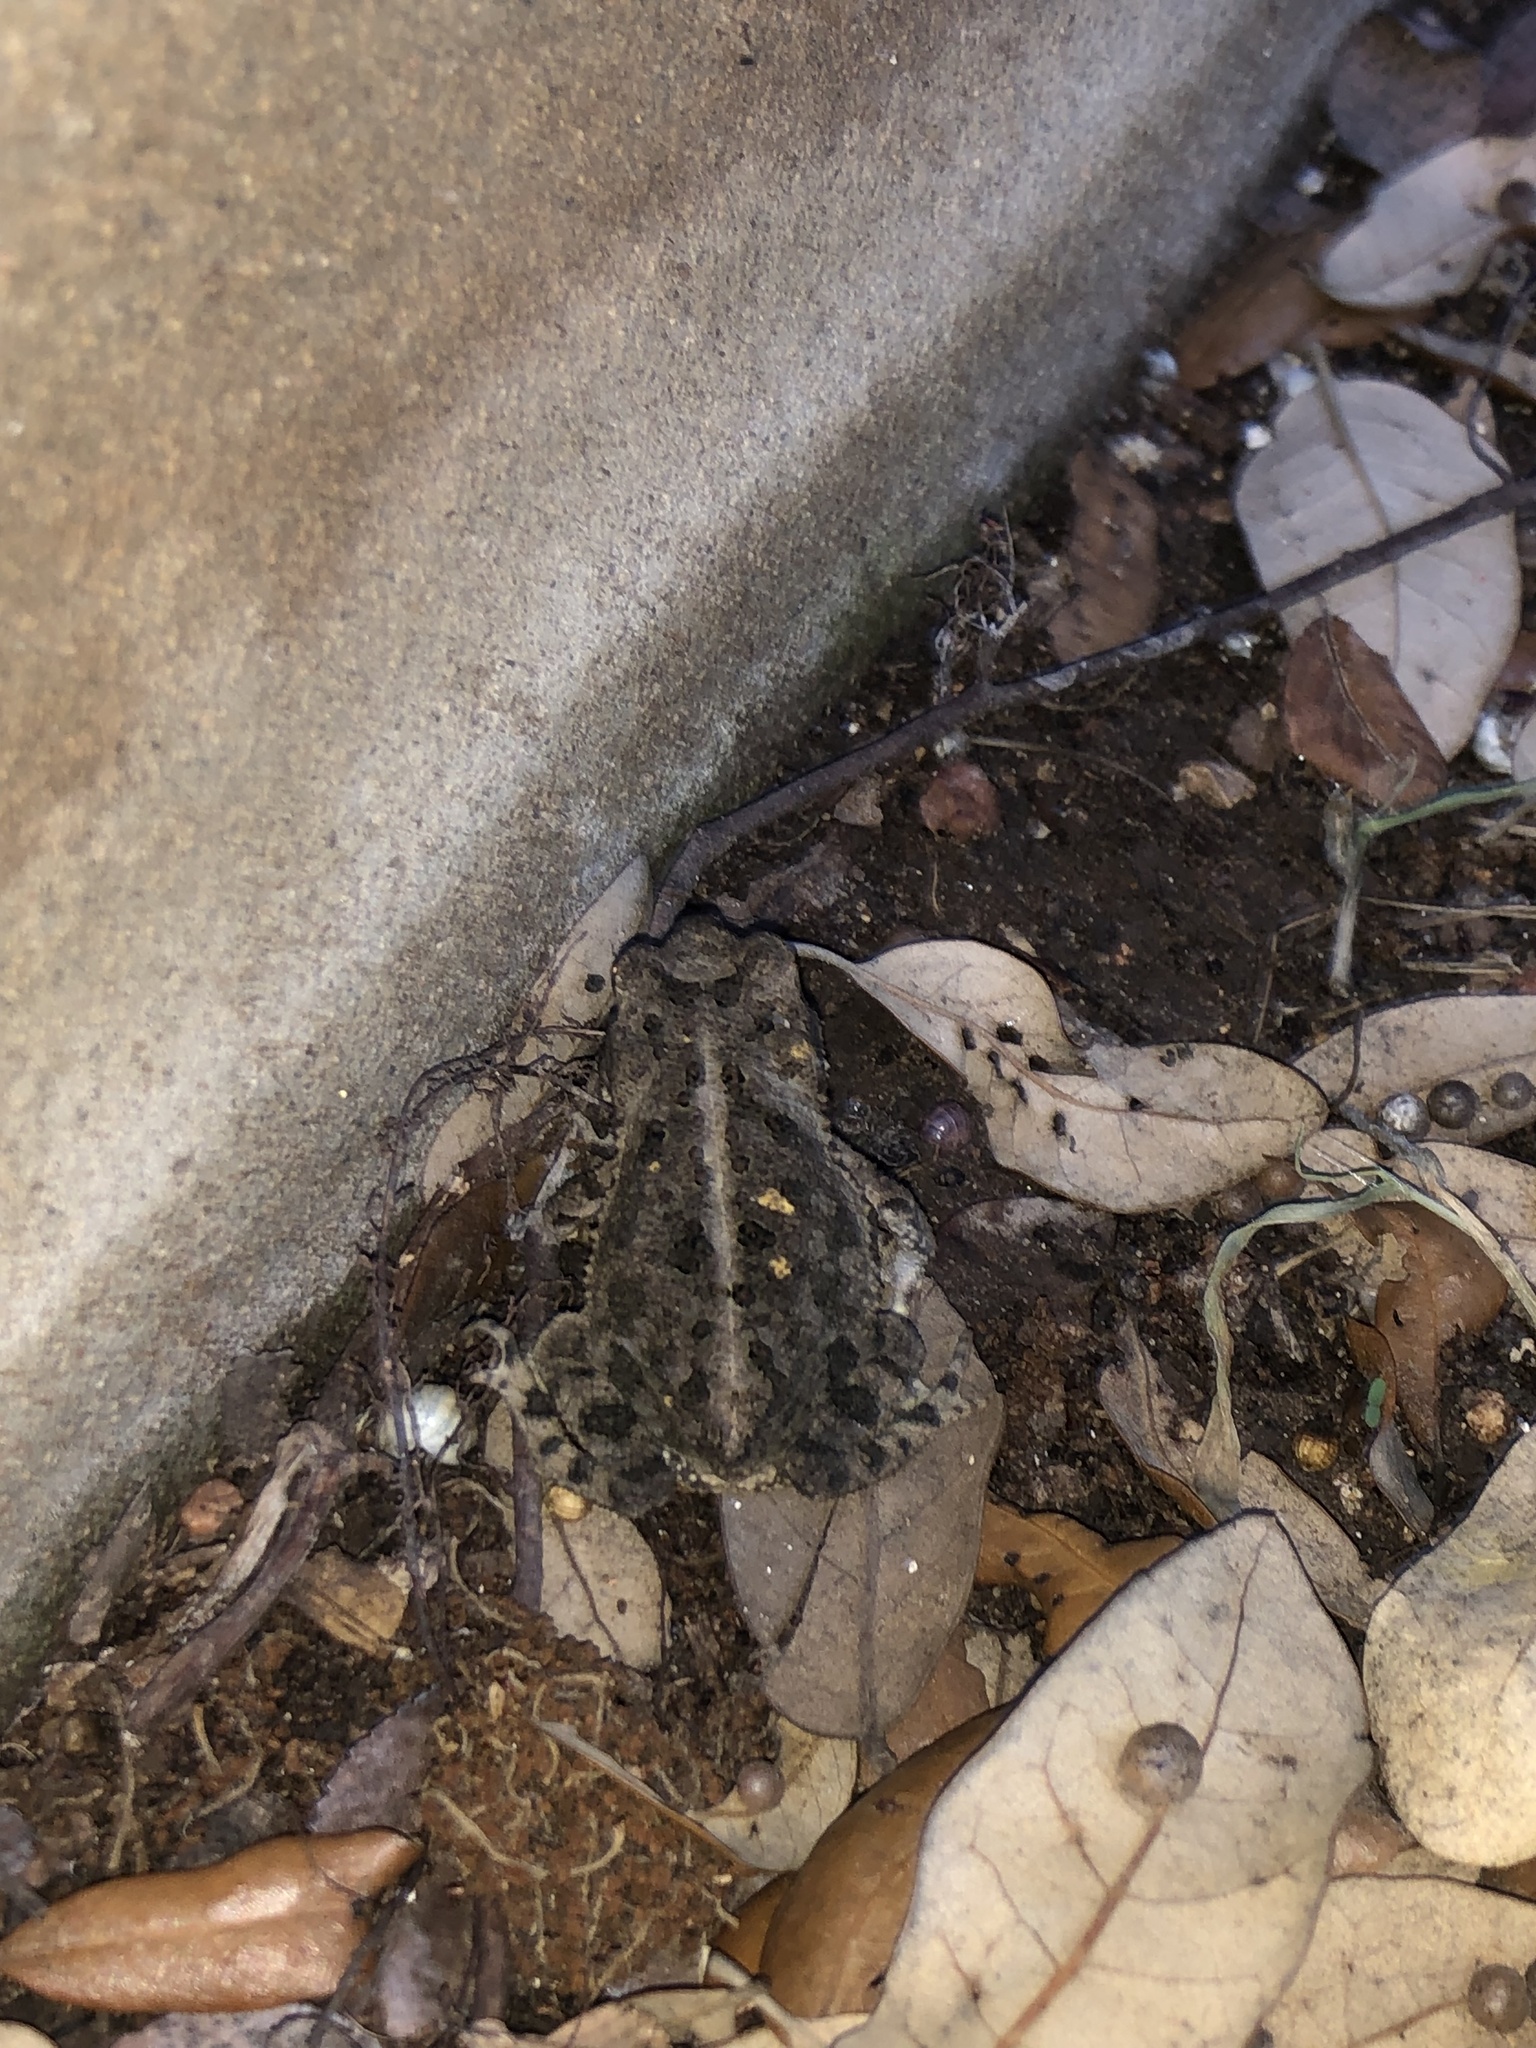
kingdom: Animalia
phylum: Chordata
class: Amphibia
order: Anura
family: Bufonidae
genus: Incilius
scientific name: Incilius nebulifer
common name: Gulf coast toad
